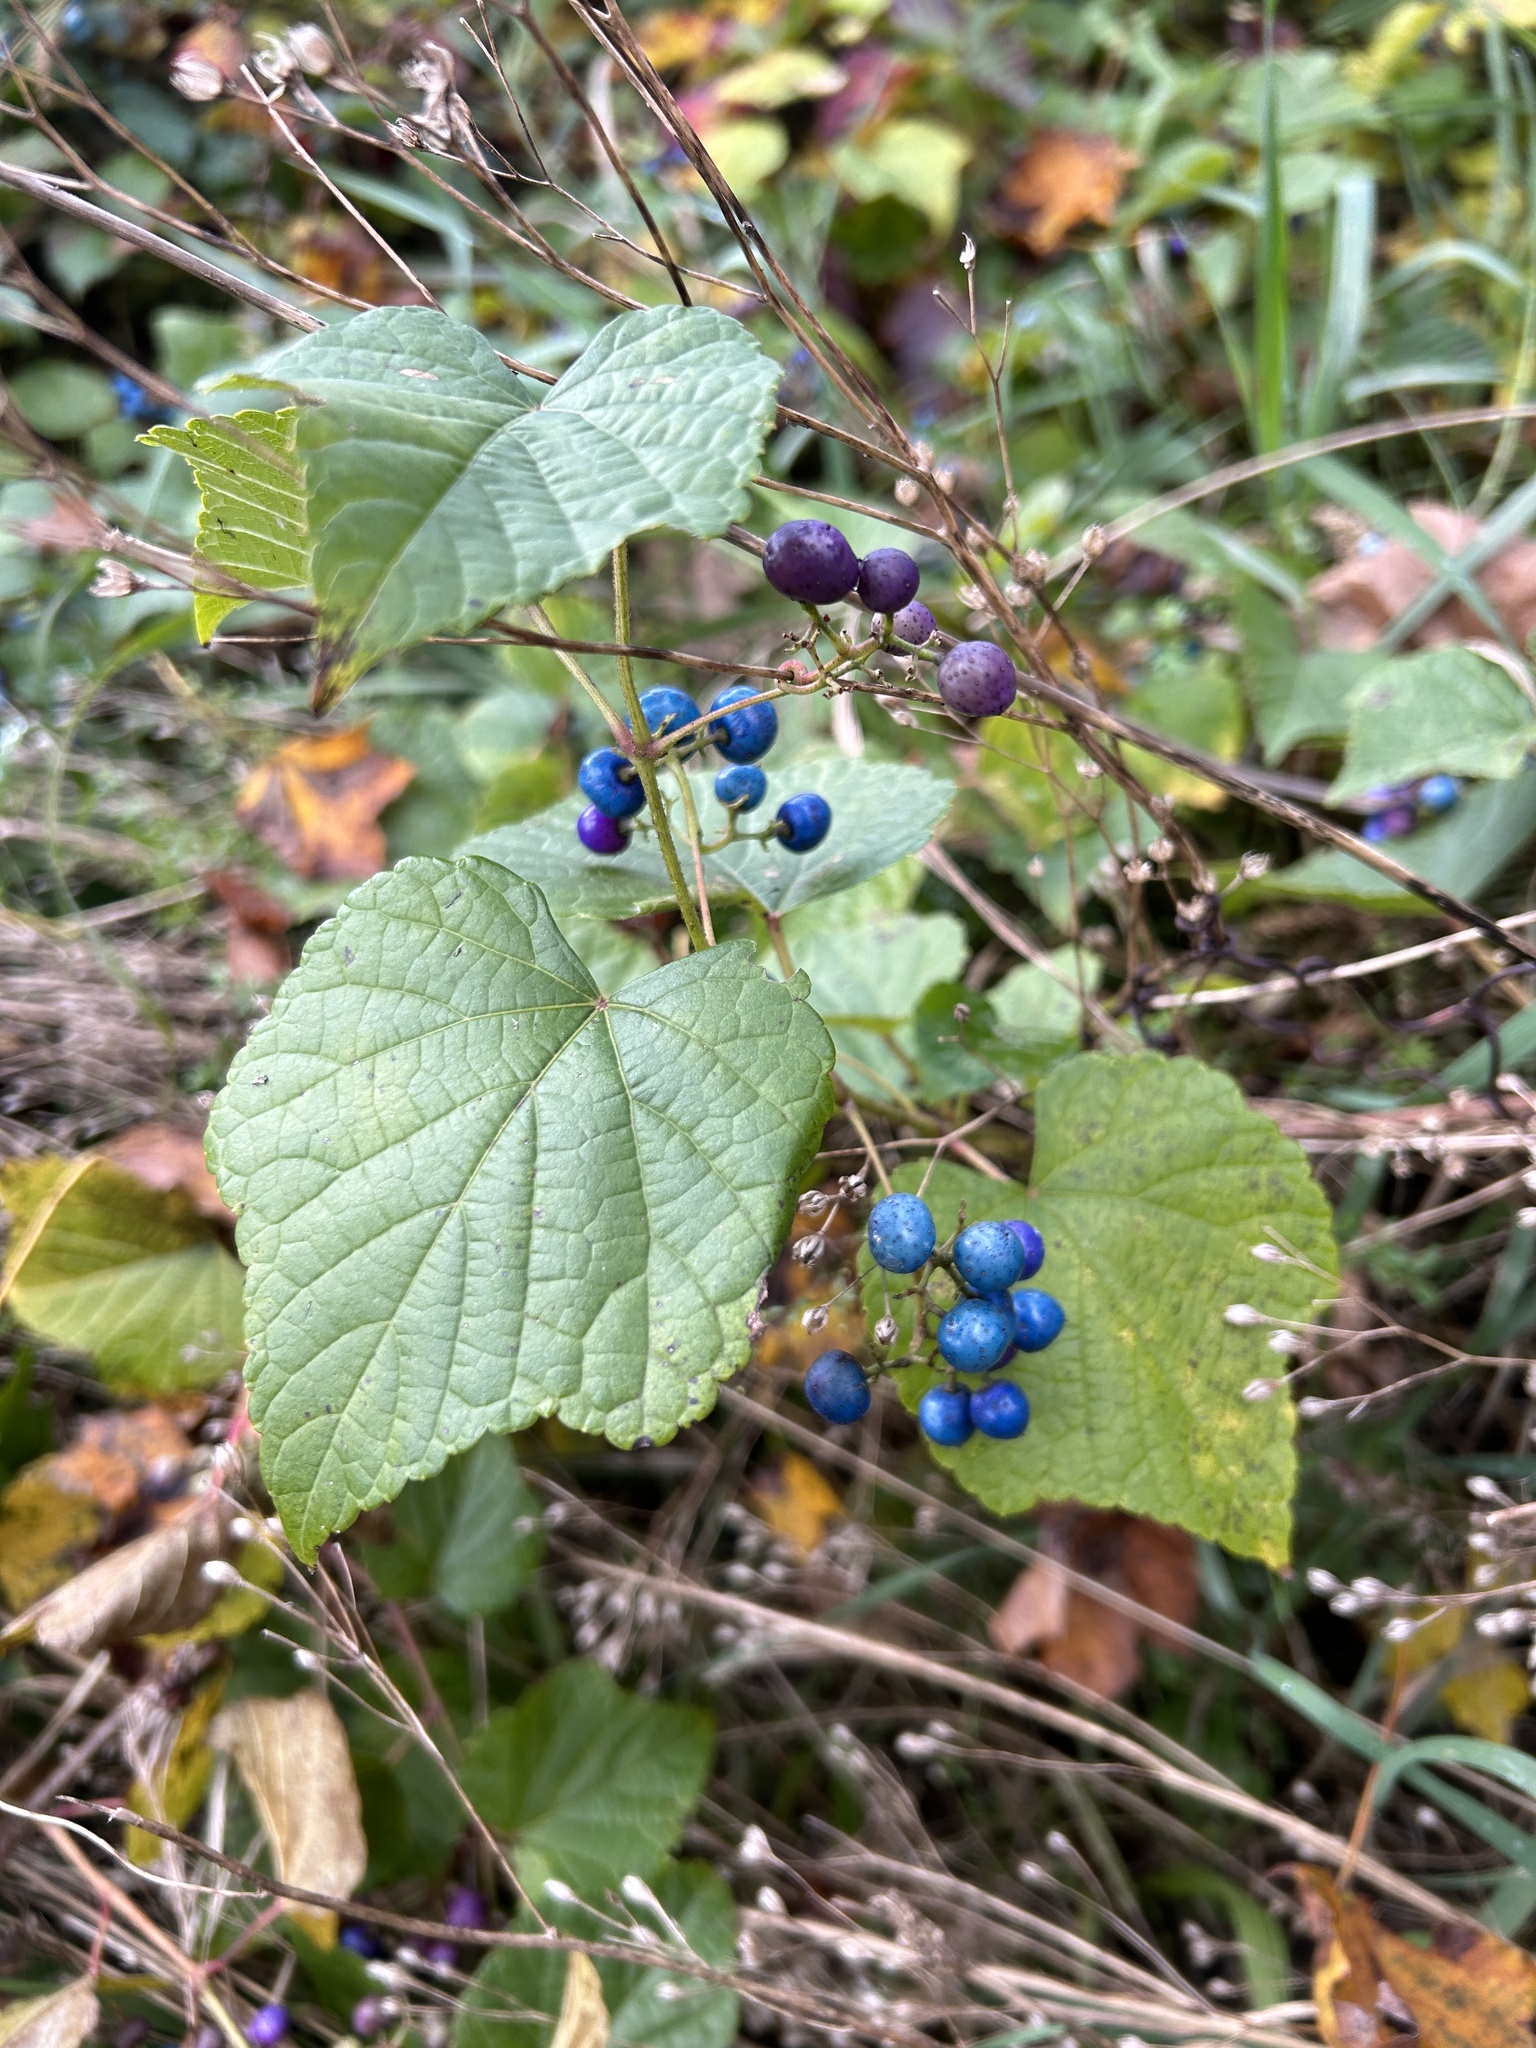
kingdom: Plantae
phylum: Tracheophyta
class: Magnoliopsida
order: Vitales
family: Vitaceae
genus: Ampelopsis
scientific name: Ampelopsis glandulosa
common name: Amur peppervine
